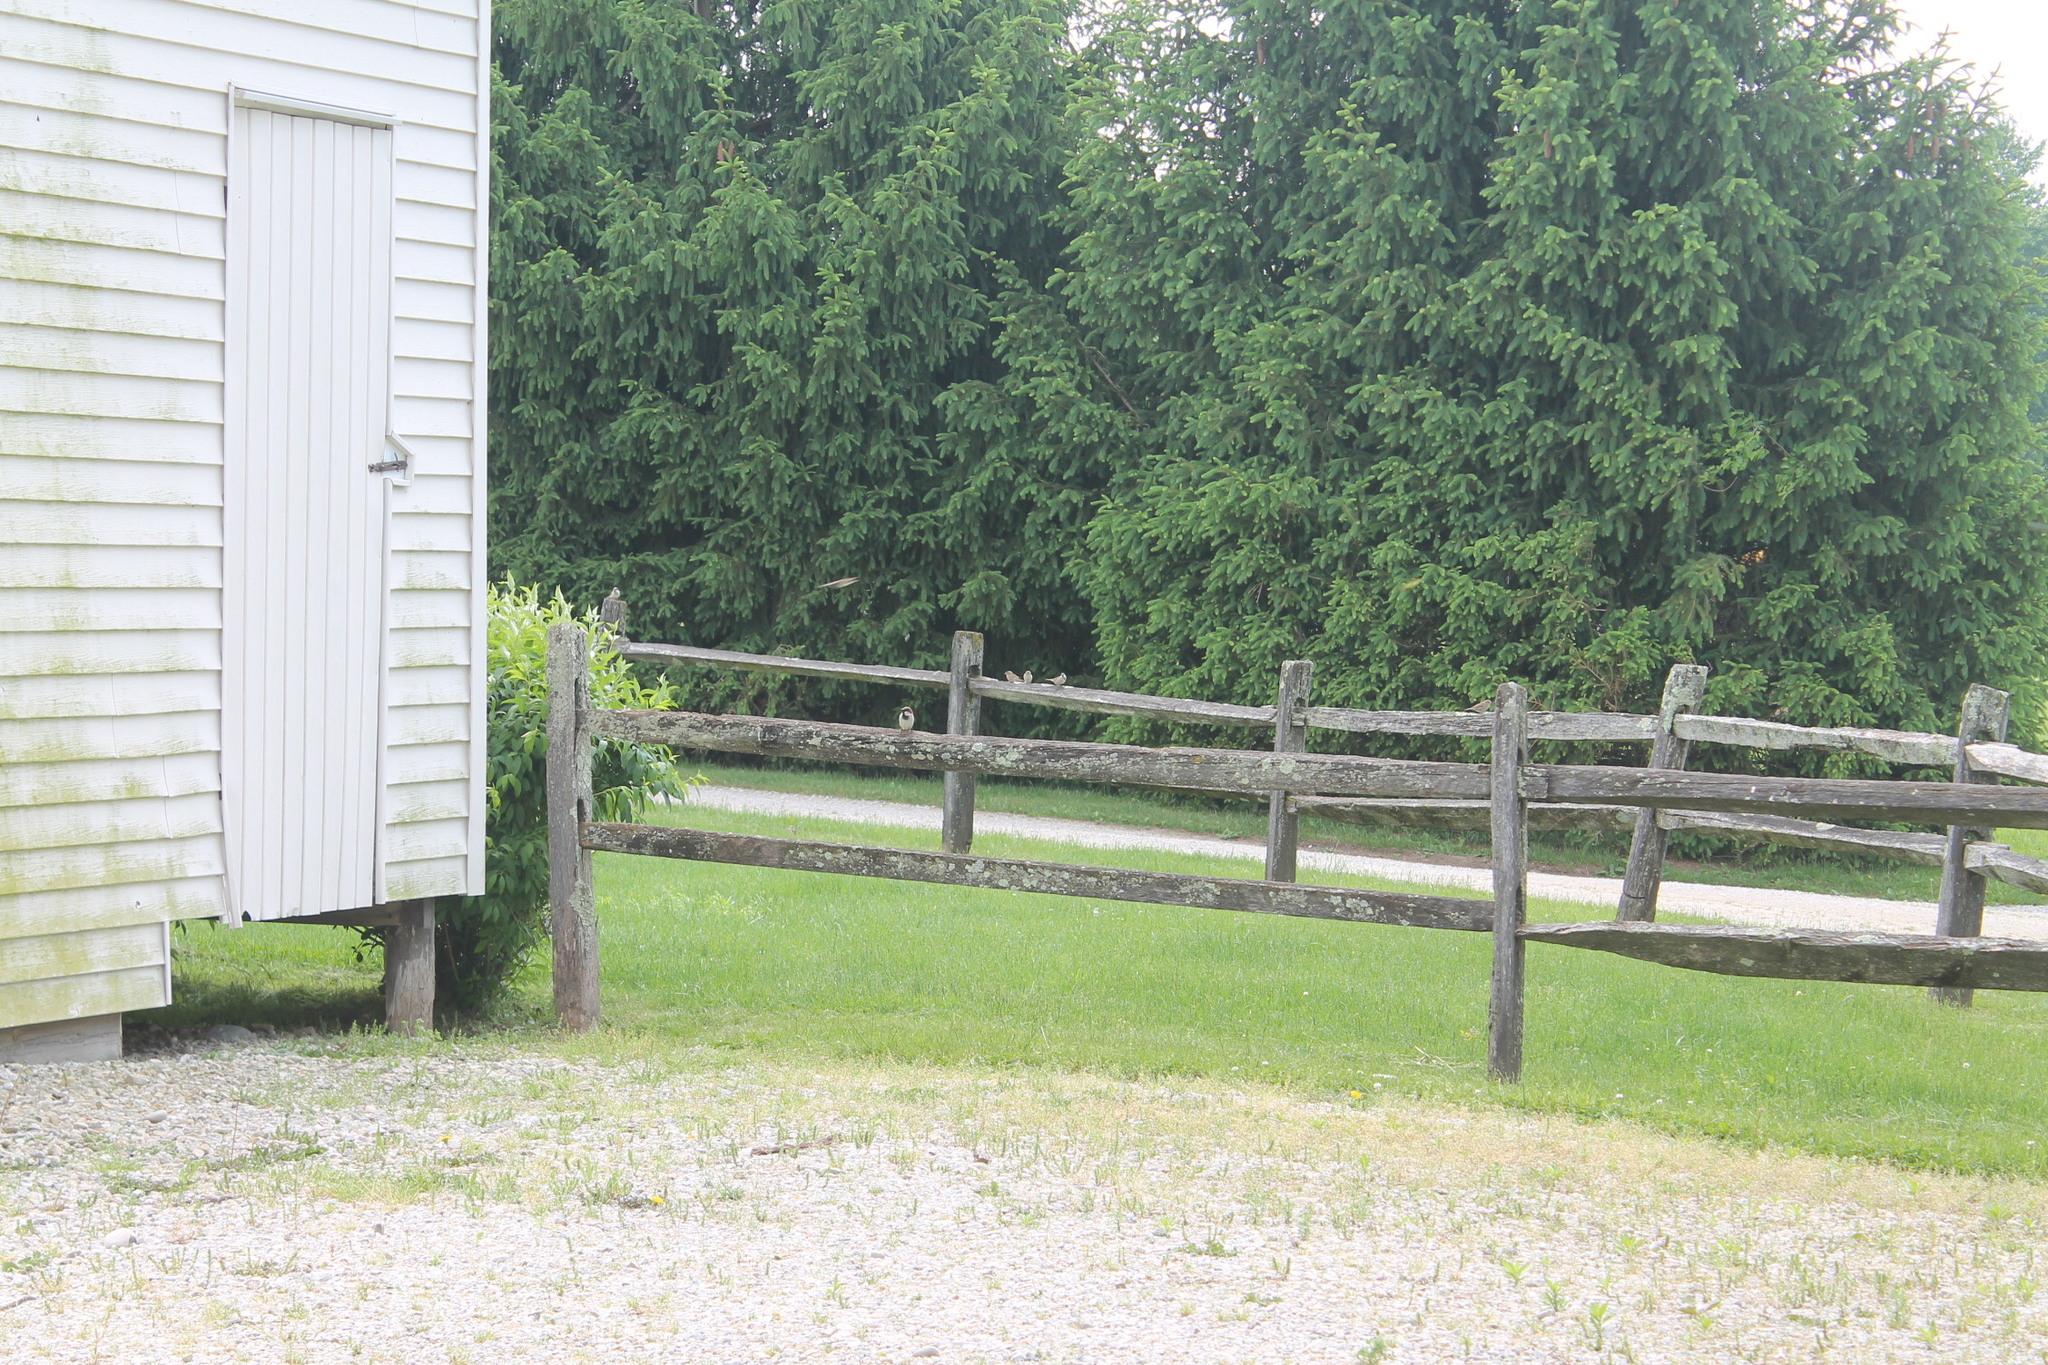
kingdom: Animalia
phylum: Chordata
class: Aves
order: Passeriformes
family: Passeridae
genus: Passer
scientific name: Passer domesticus
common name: House sparrow
